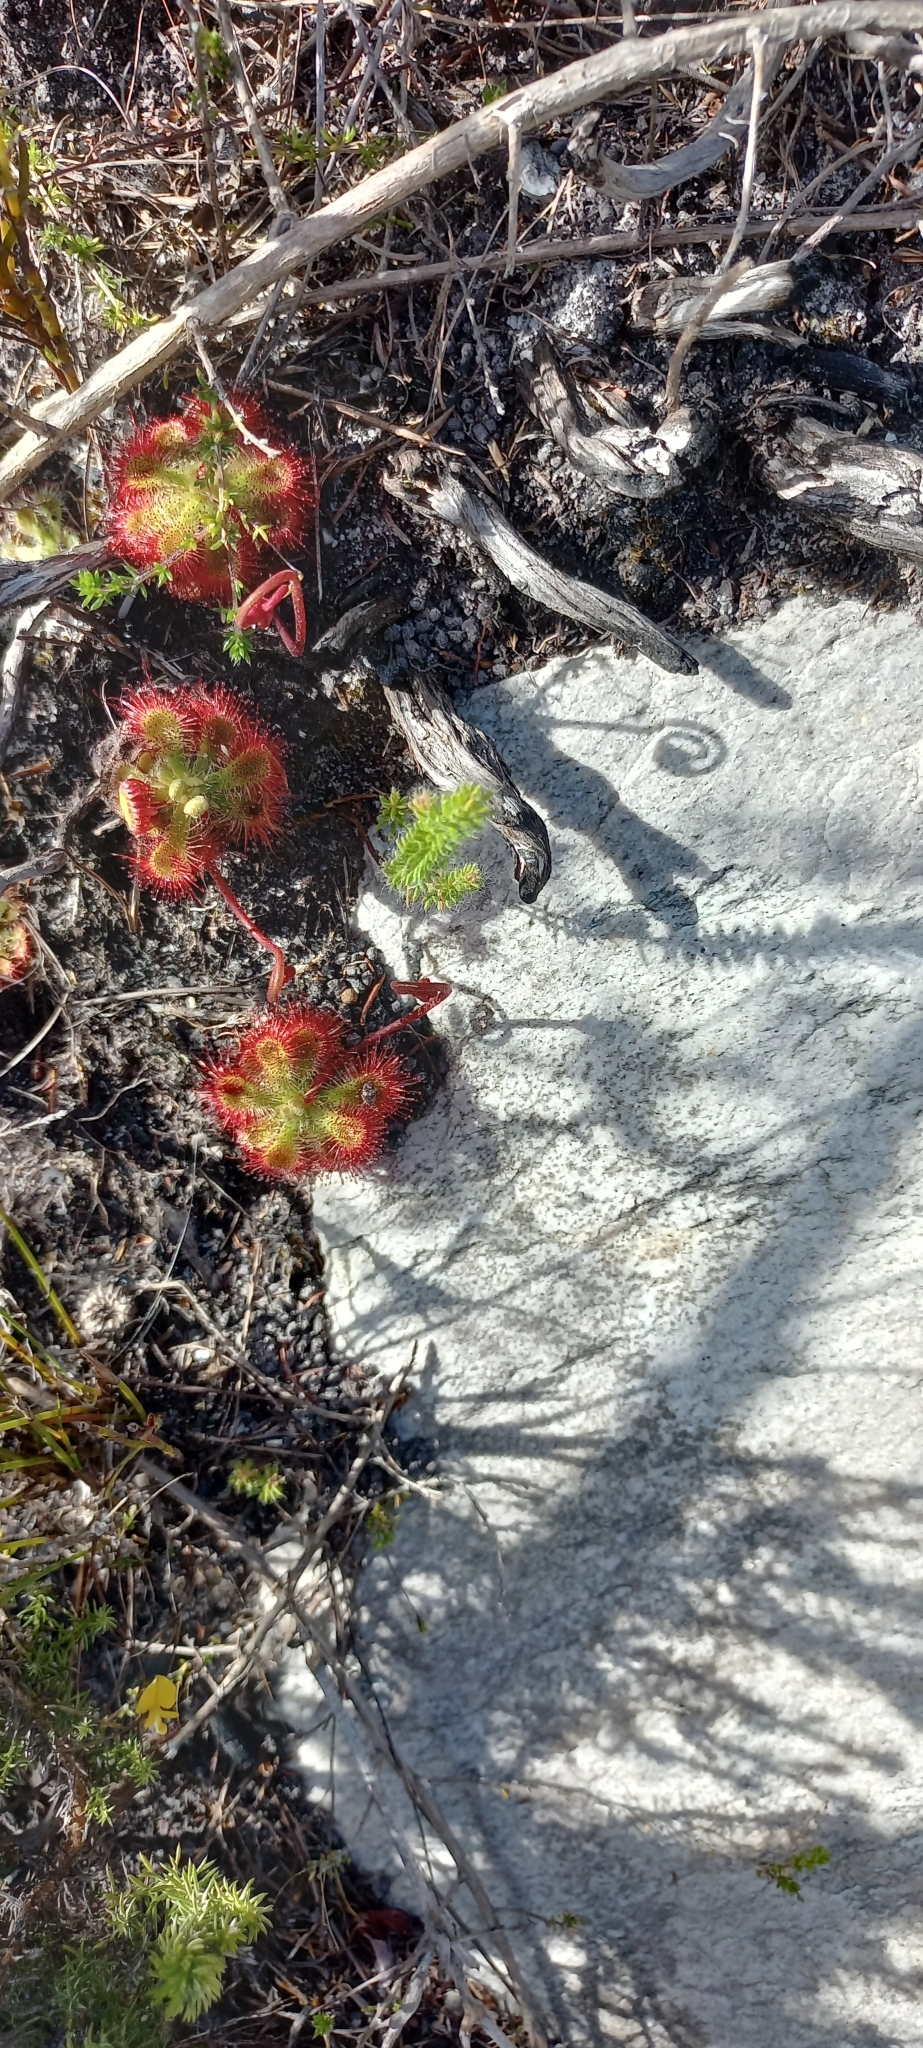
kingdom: Plantae
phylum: Tracheophyta
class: Magnoliopsida
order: Caryophyllales
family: Droseraceae
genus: Drosera
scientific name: Drosera xerophila
